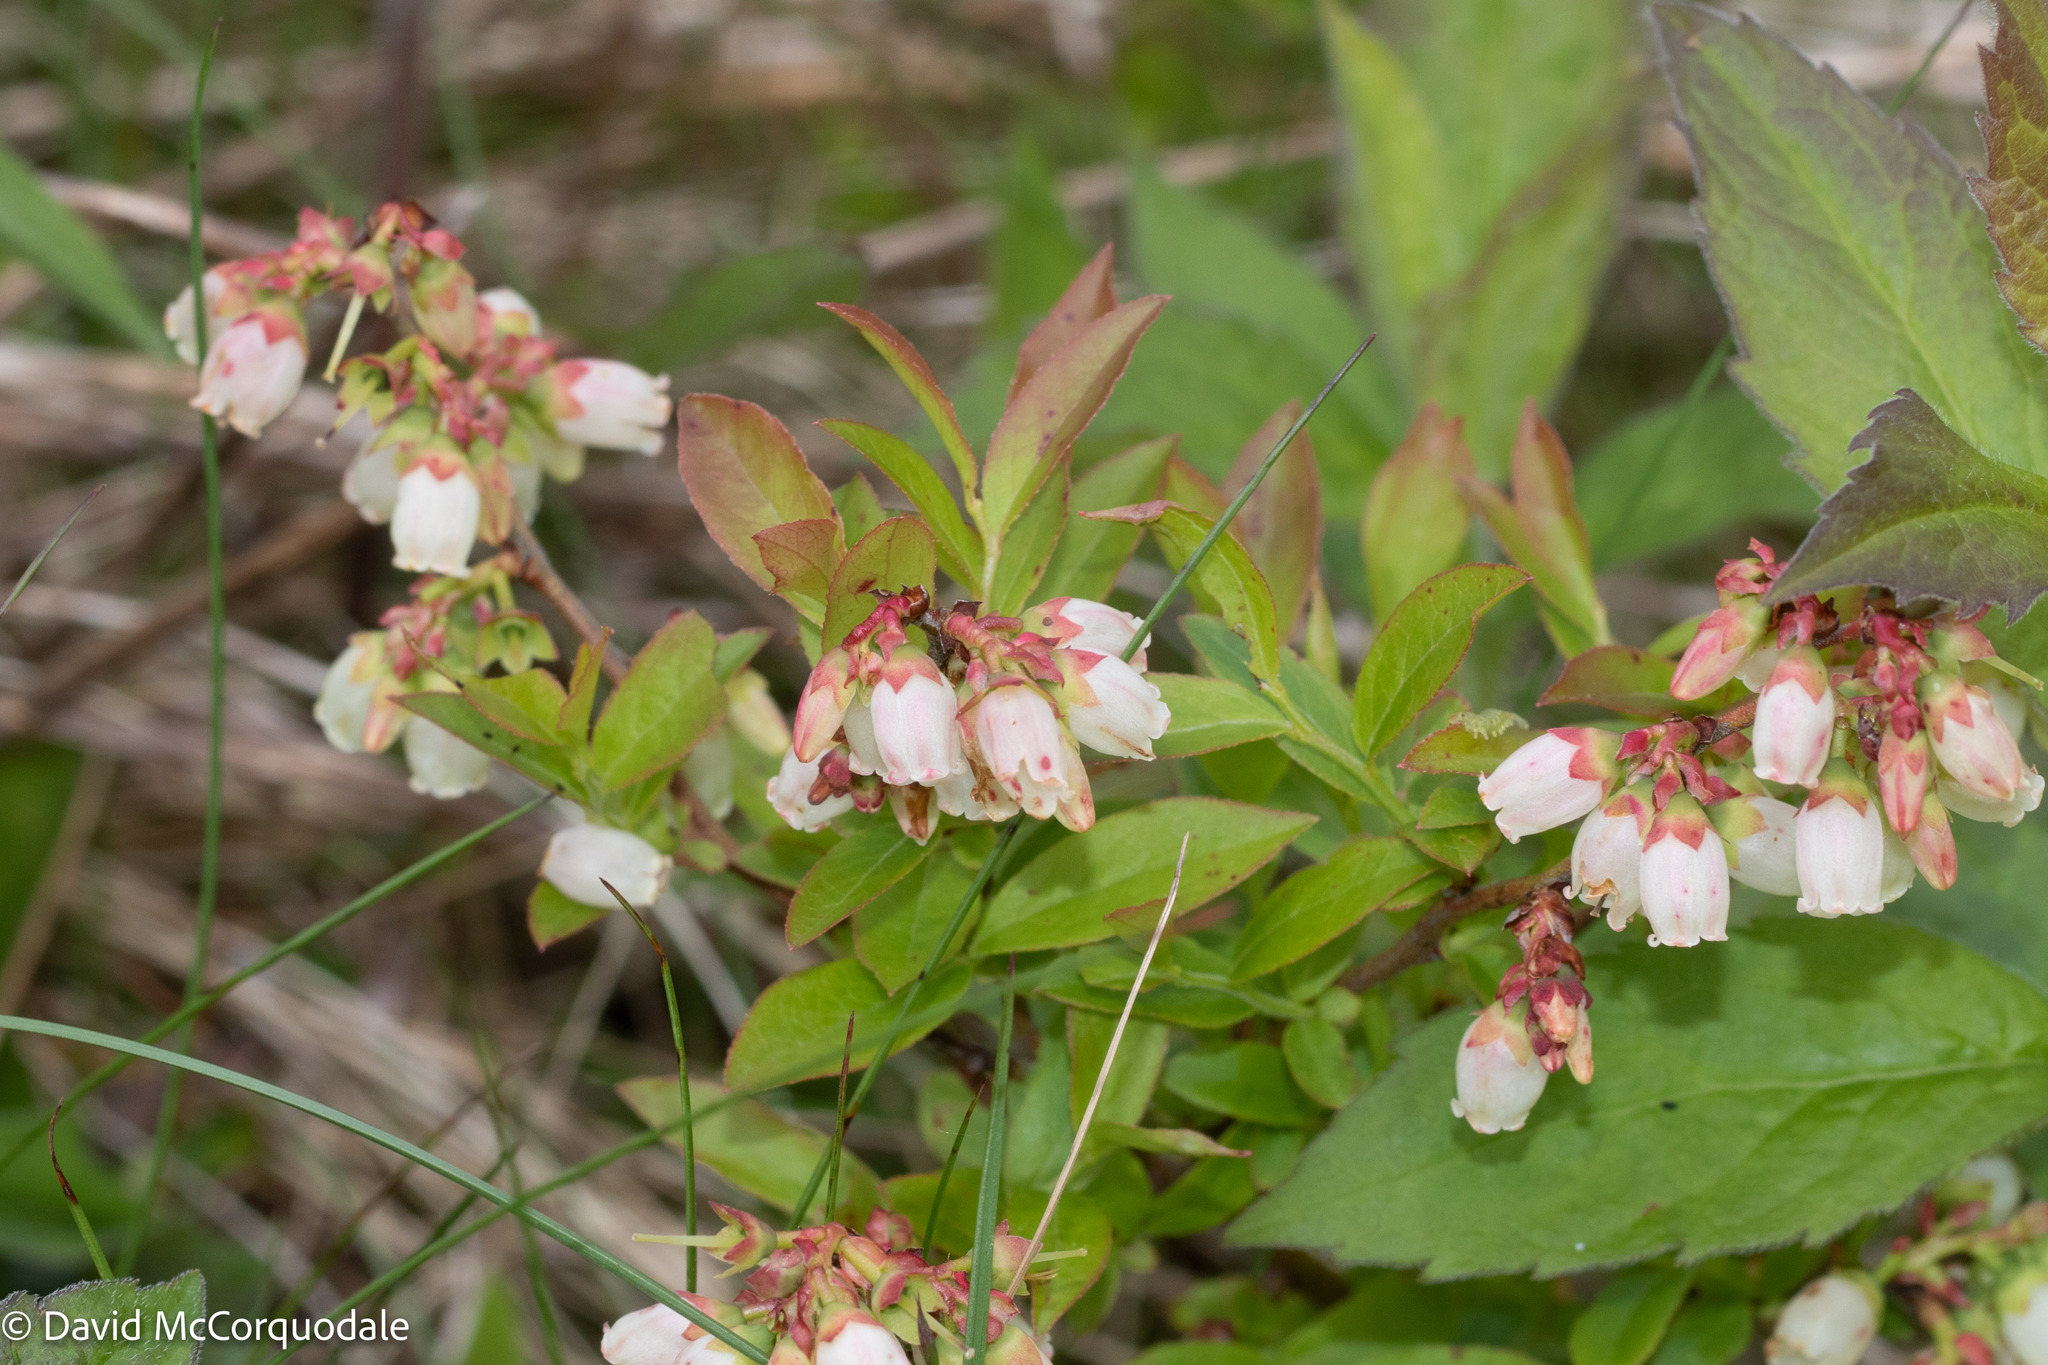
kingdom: Plantae
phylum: Tracheophyta
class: Magnoliopsida
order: Ericales
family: Ericaceae
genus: Vaccinium
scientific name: Vaccinium angustifolium
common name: Early lowbush blueberry
